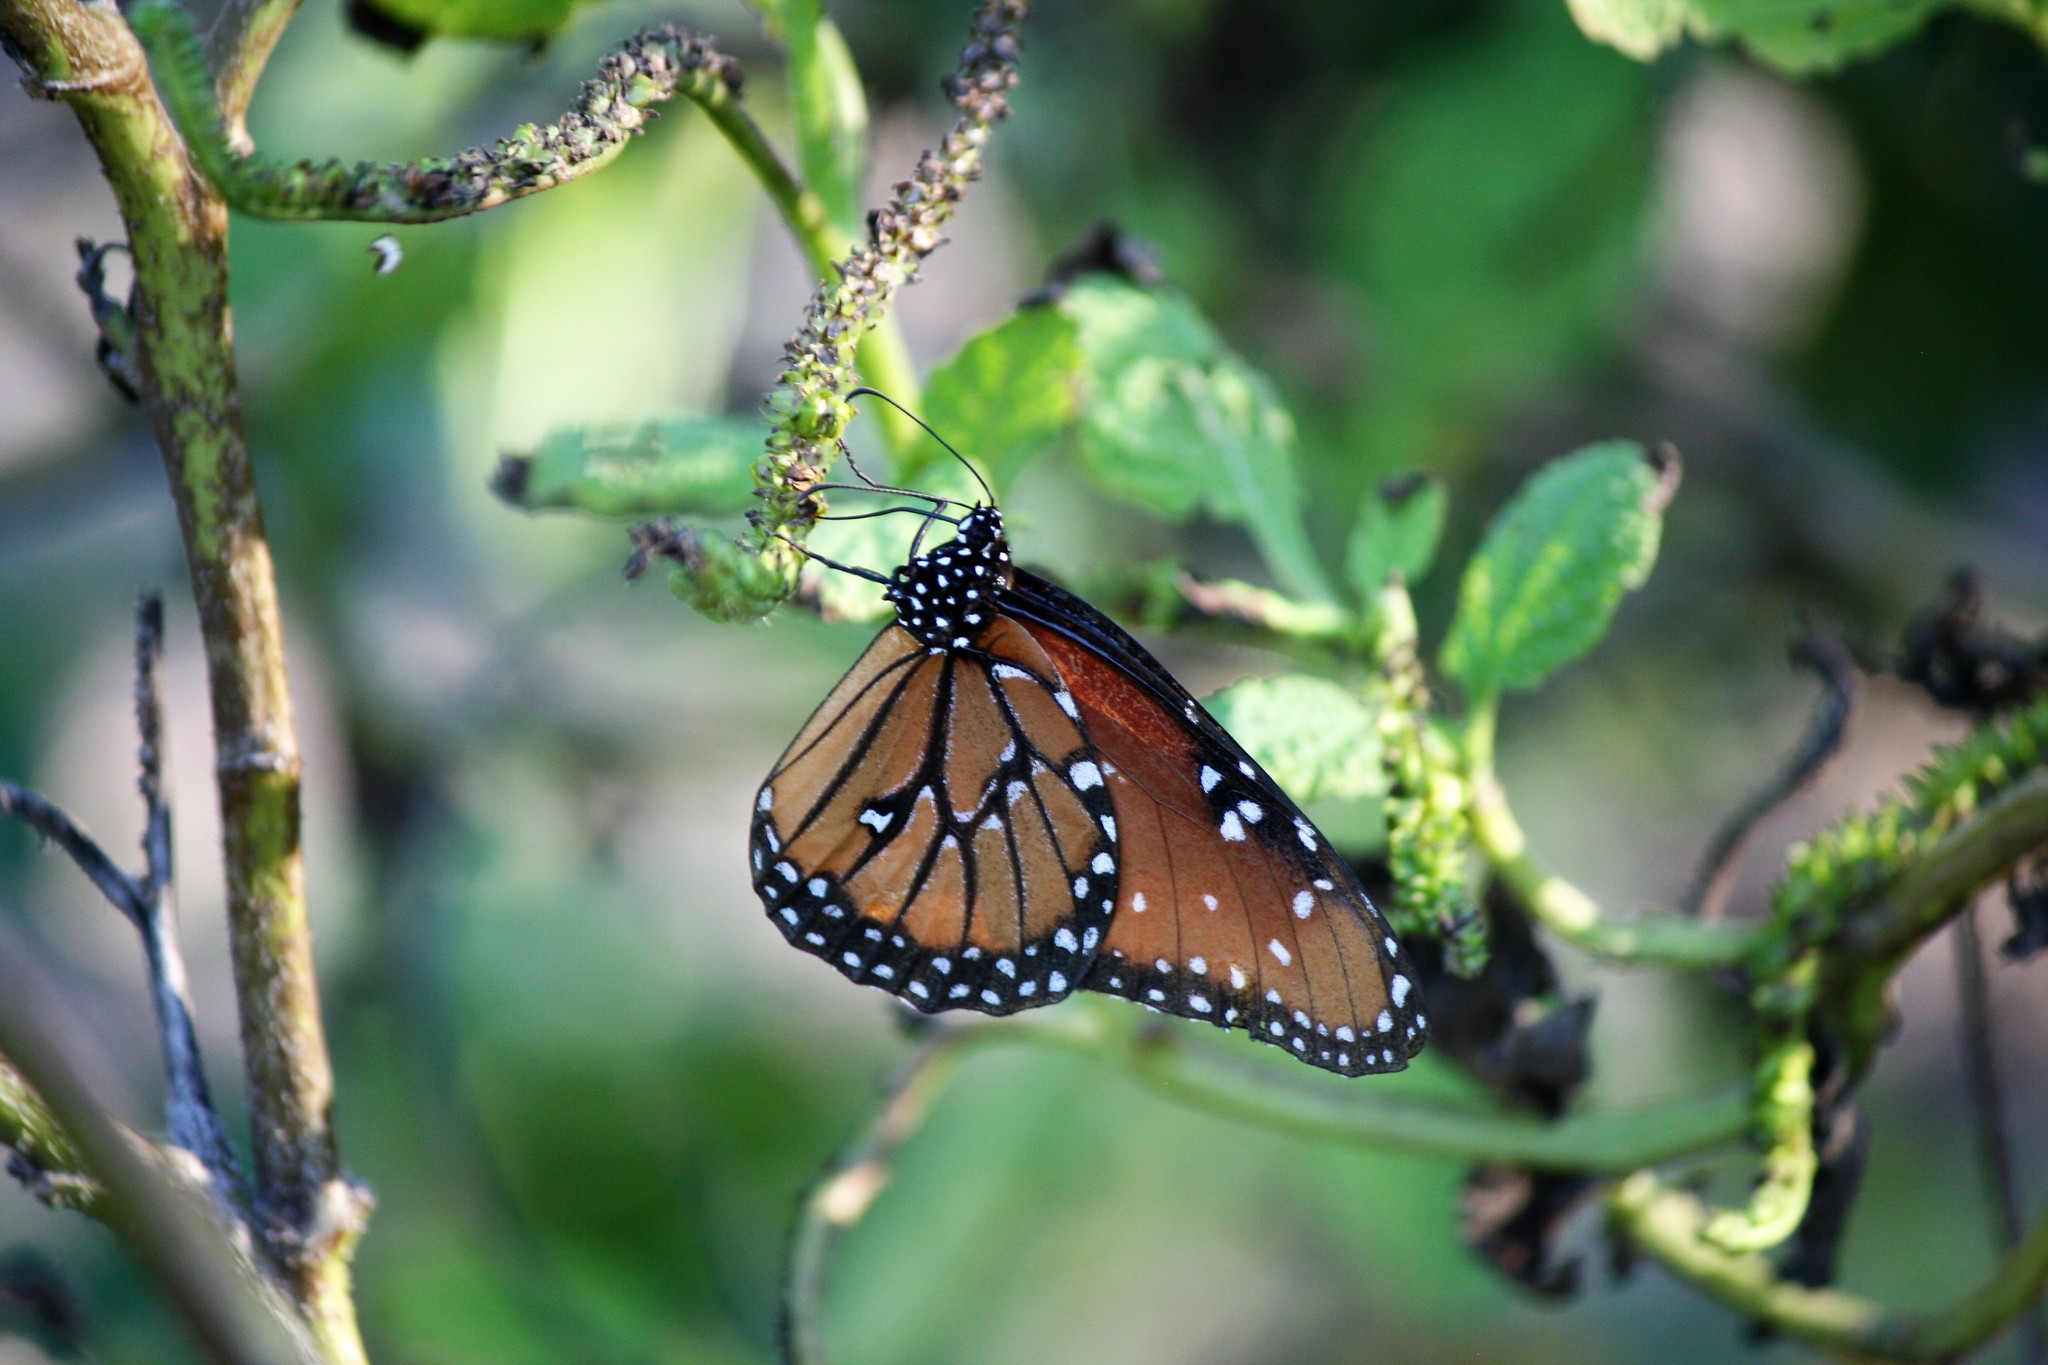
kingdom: Animalia
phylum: Arthropoda
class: Insecta
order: Lepidoptera
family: Nymphalidae
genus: Danaus
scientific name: Danaus gilippus
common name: Queen
